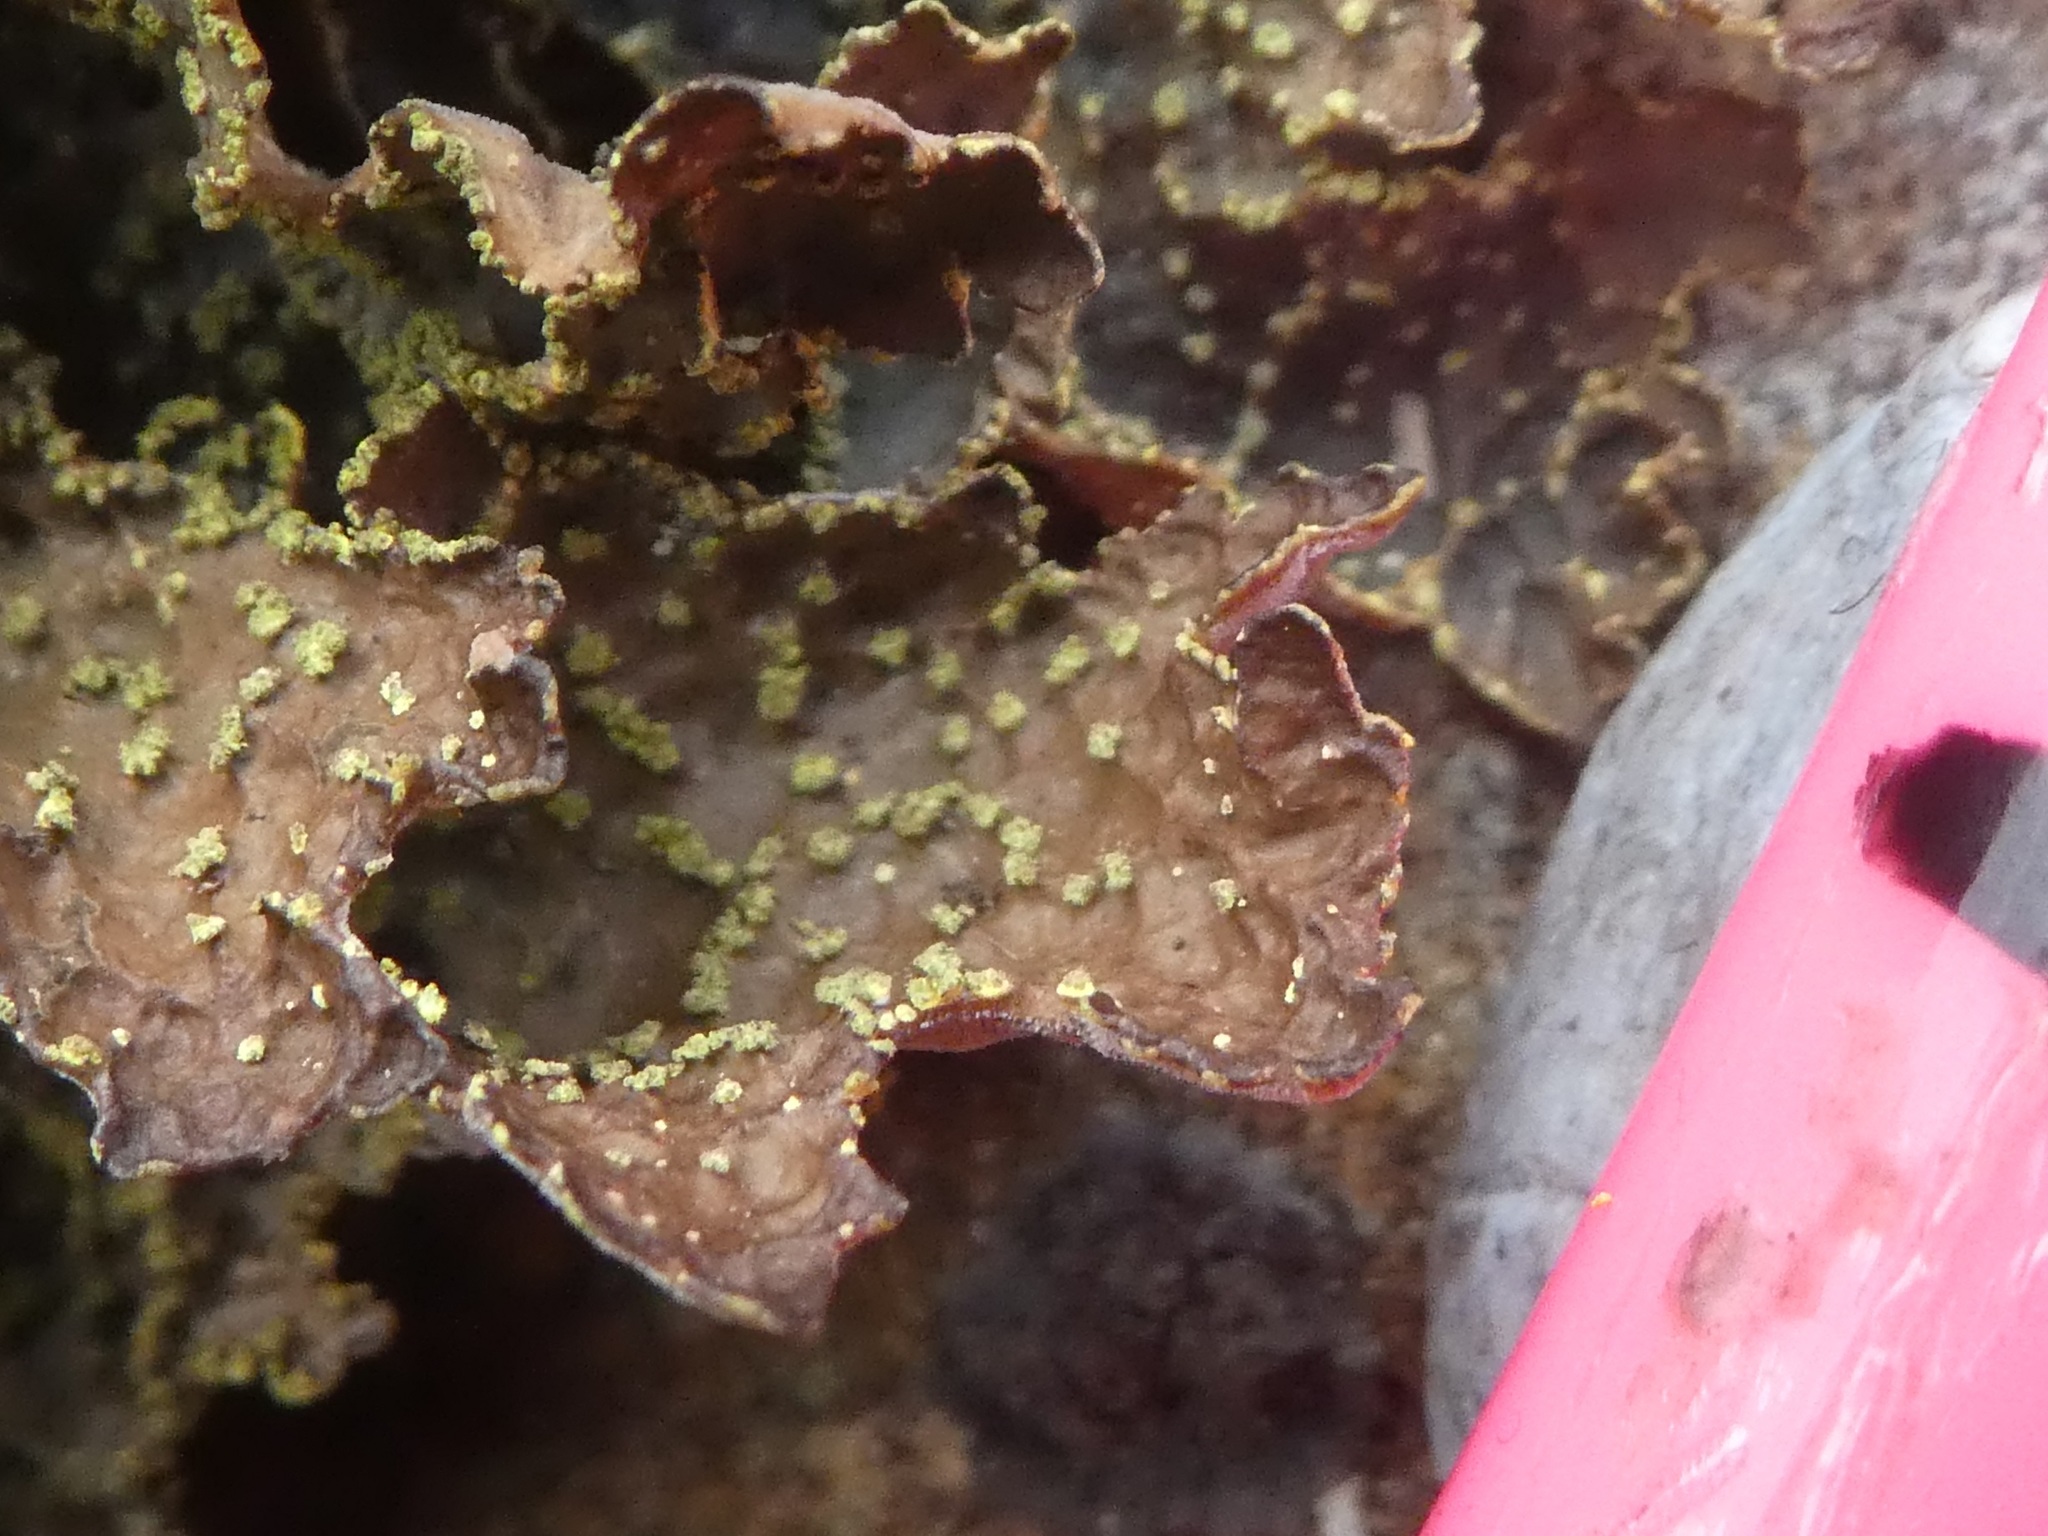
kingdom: Fungi
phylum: Ascomycota
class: Lecanoromycetes
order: Peltigerales
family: Lobariaceae
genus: Pseudocyphellaria
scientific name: Pseudocyphellaria crocata
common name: Golden specklebelly
